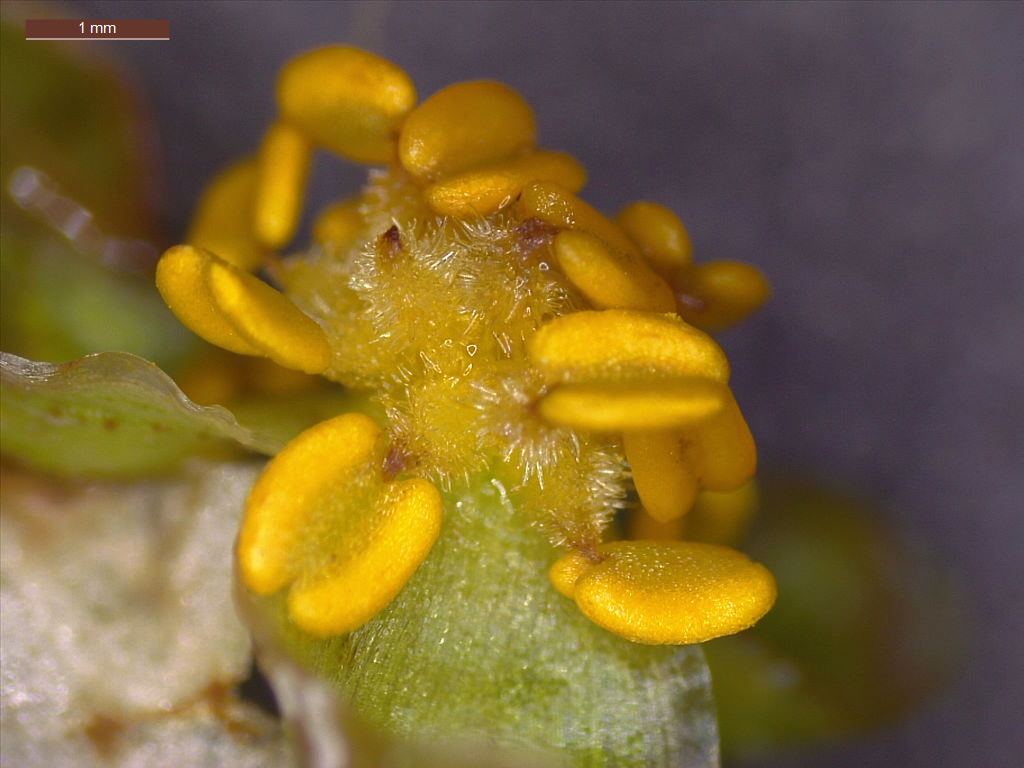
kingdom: Plantae
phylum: Tracheophyta
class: Liliopsida
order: Alismatales
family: Alismataceae
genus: Sagittaria
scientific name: Sagittaria platyphylla
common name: Broad-leaf arrowhead
